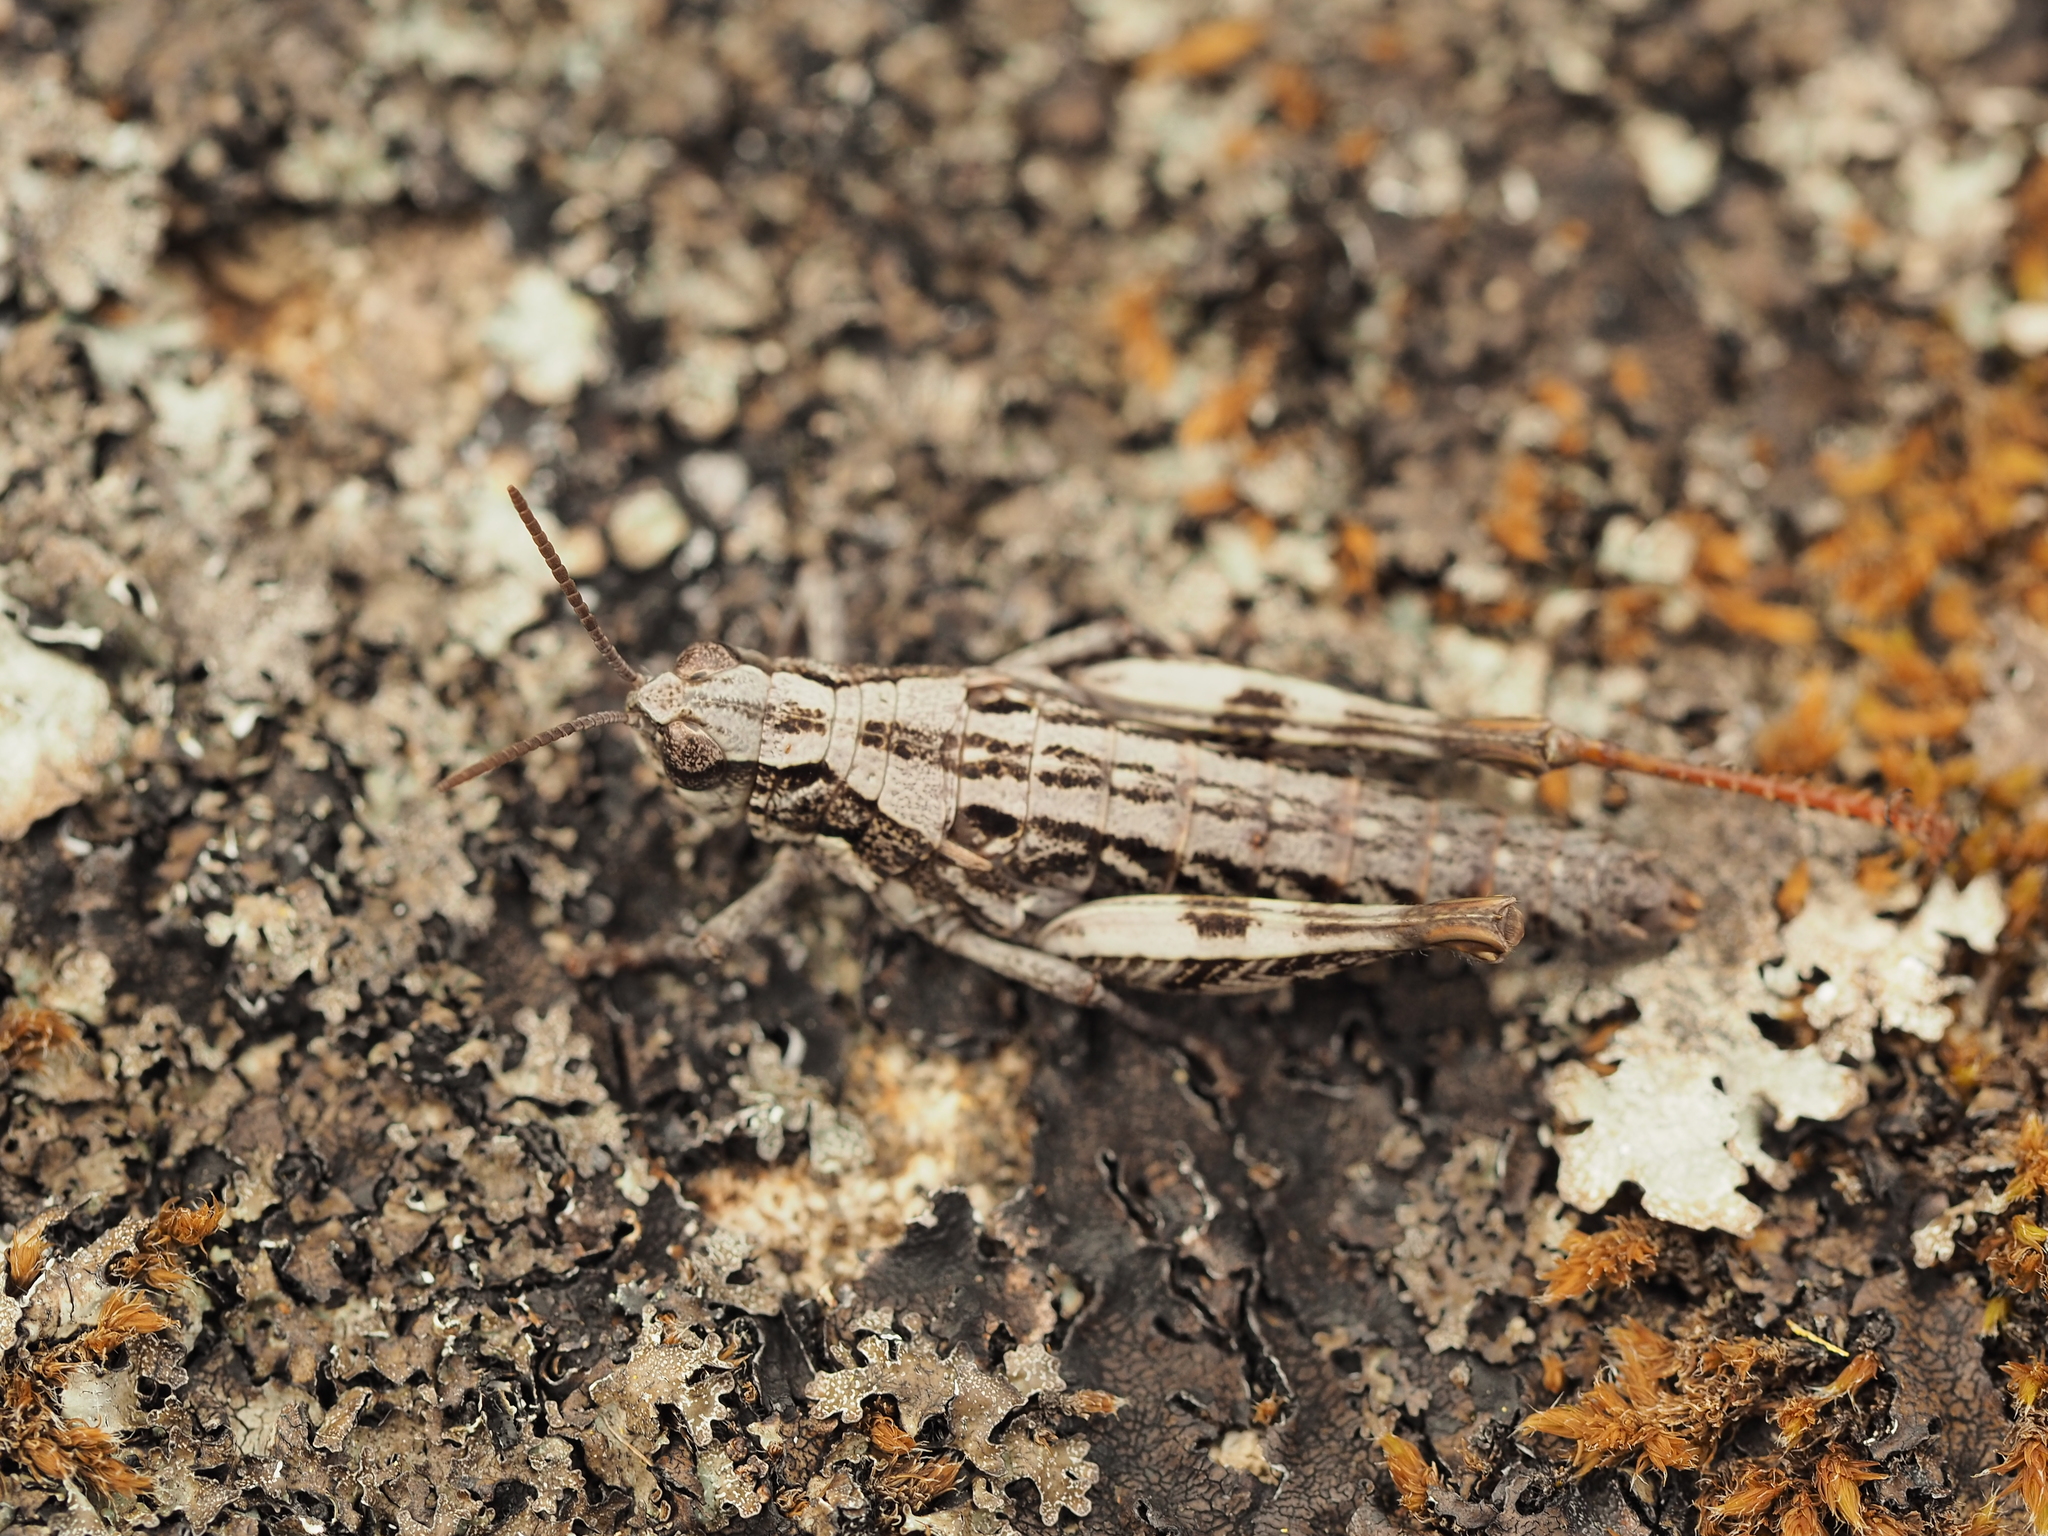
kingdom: Animalia
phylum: Arthropoda
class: Insecta
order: Orthoptera
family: Acrididae
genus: Tasmaniacris
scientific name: Tasmaniacris tasmaniensis
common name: Tasmanian grasshopper
